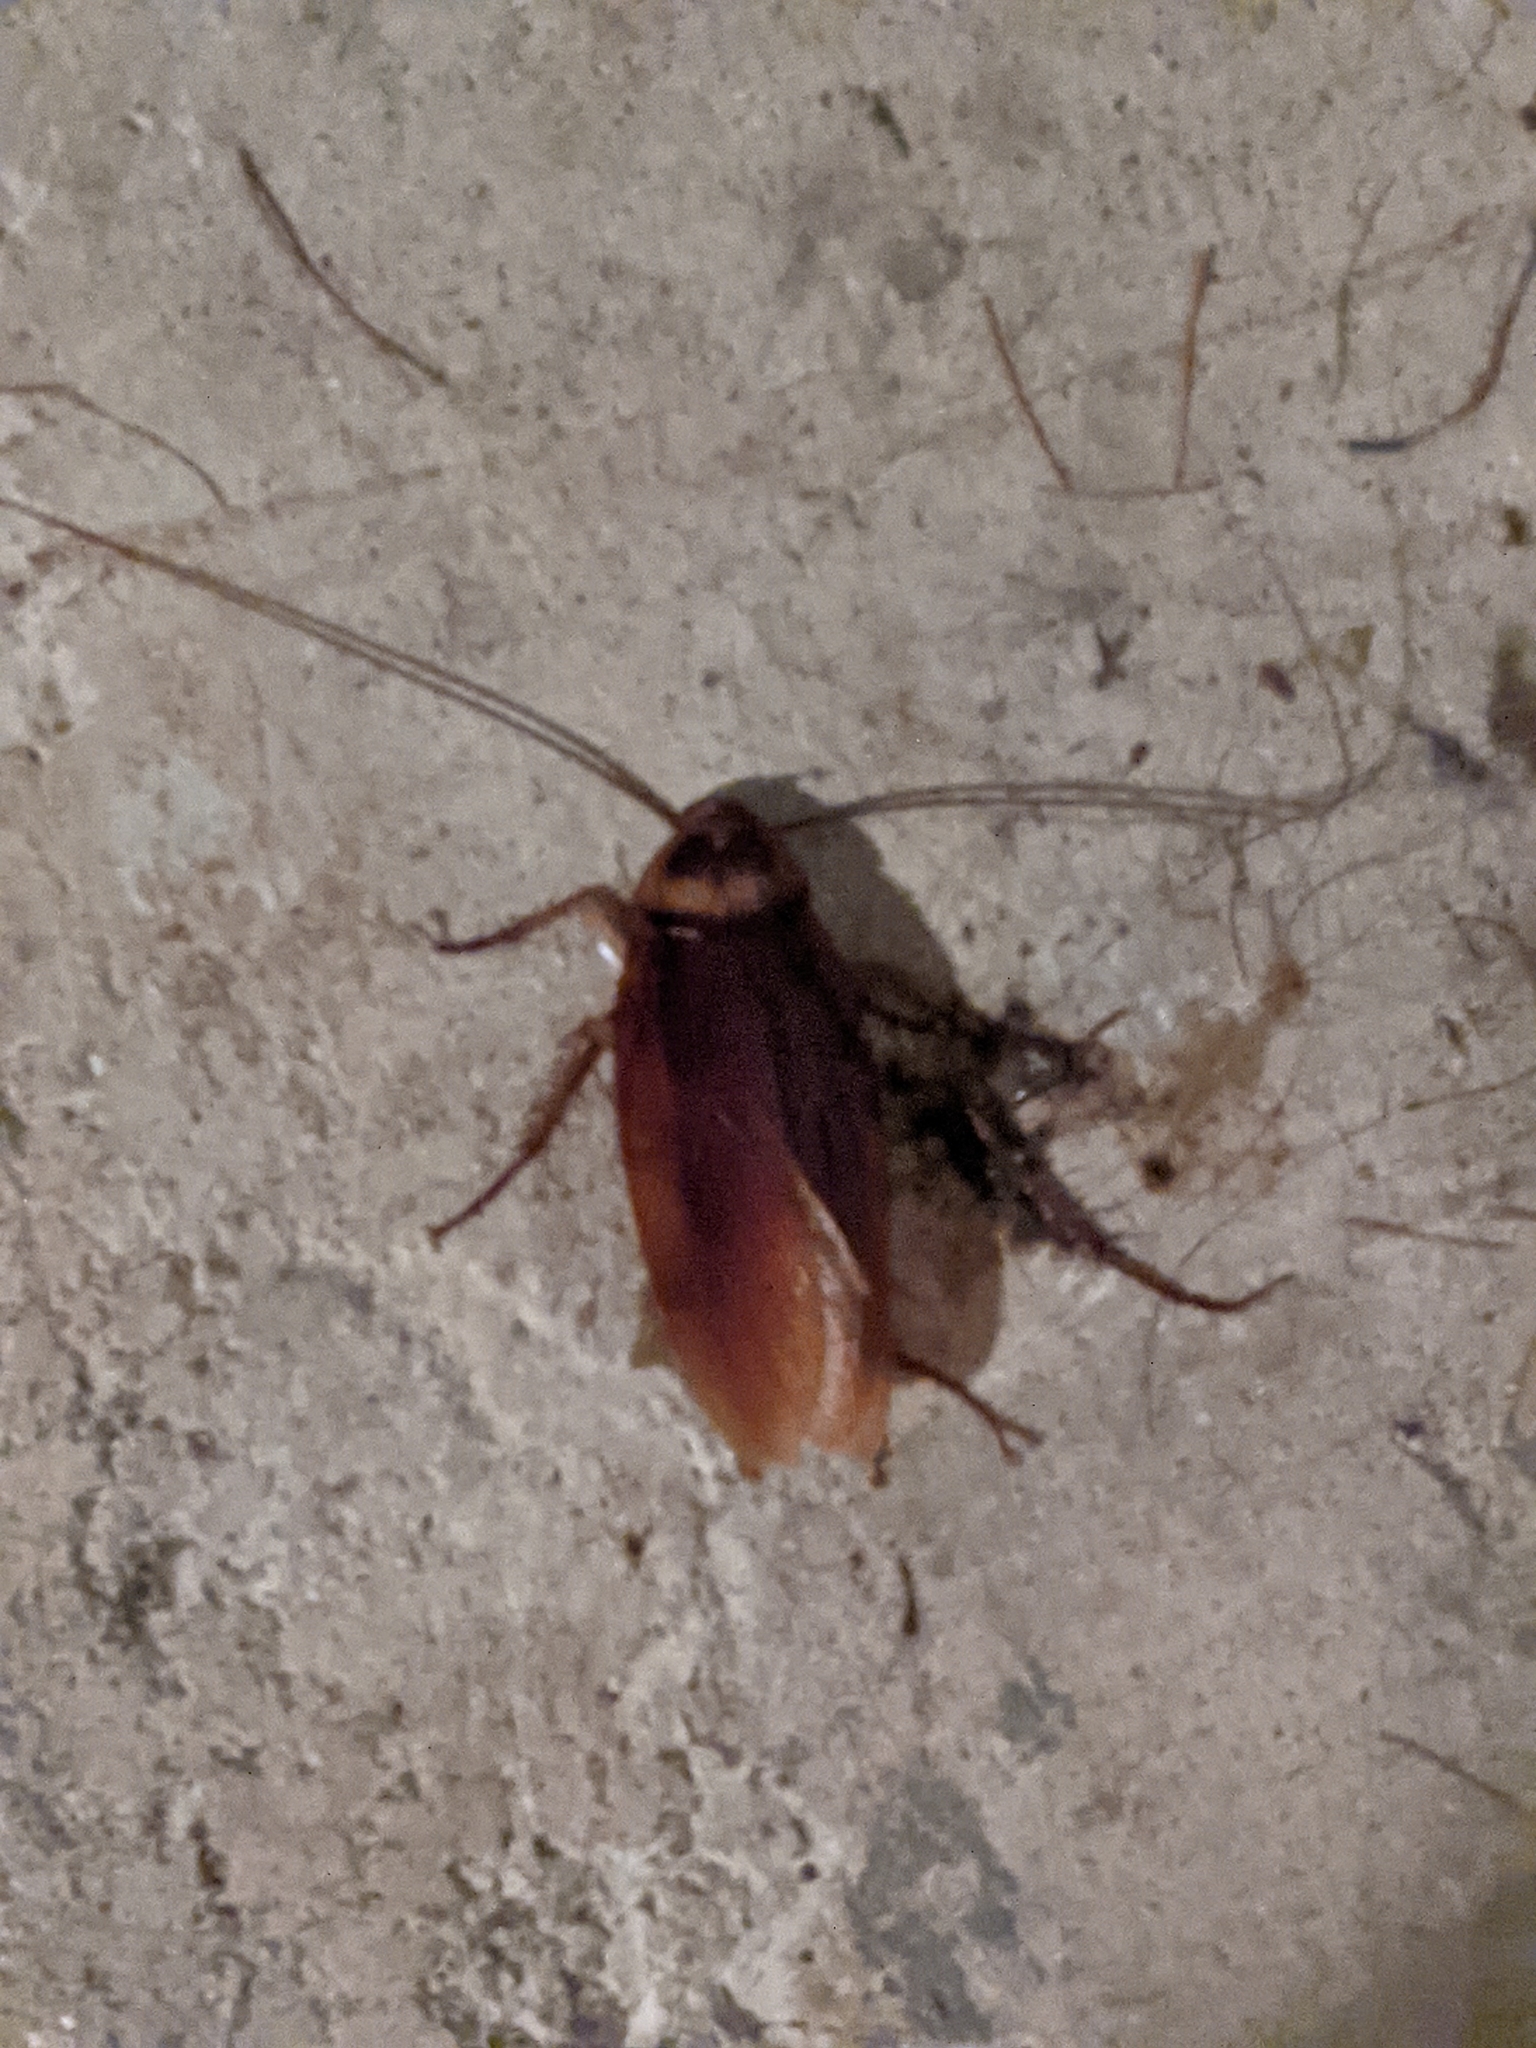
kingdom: Animalia
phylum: Arthropoda
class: Insecta
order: Blattodea
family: Blattidae
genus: Periplaneta
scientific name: Periplaneta americana
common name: American cockroach
